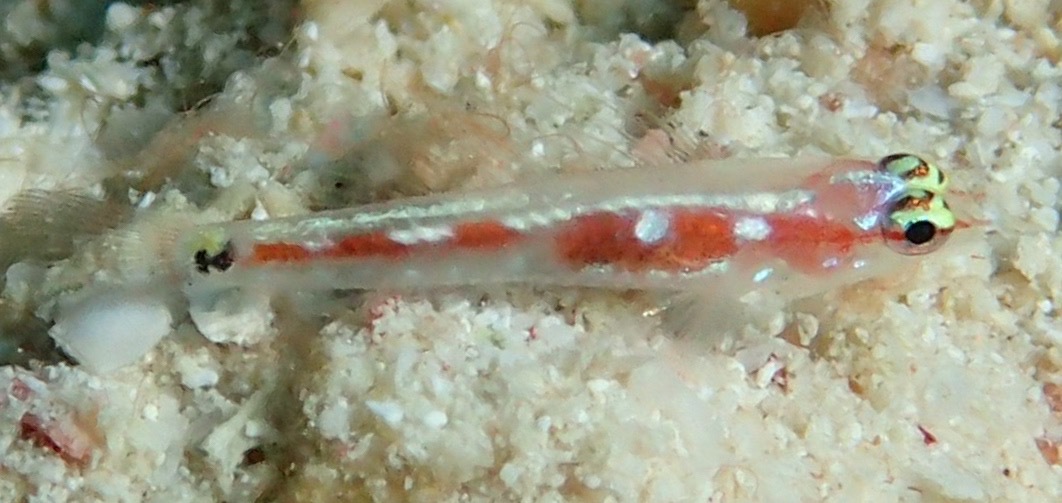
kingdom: Animalia
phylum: Chordata
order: Perciformes
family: Gobiidae
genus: Eviota
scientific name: Eviota oculineata
